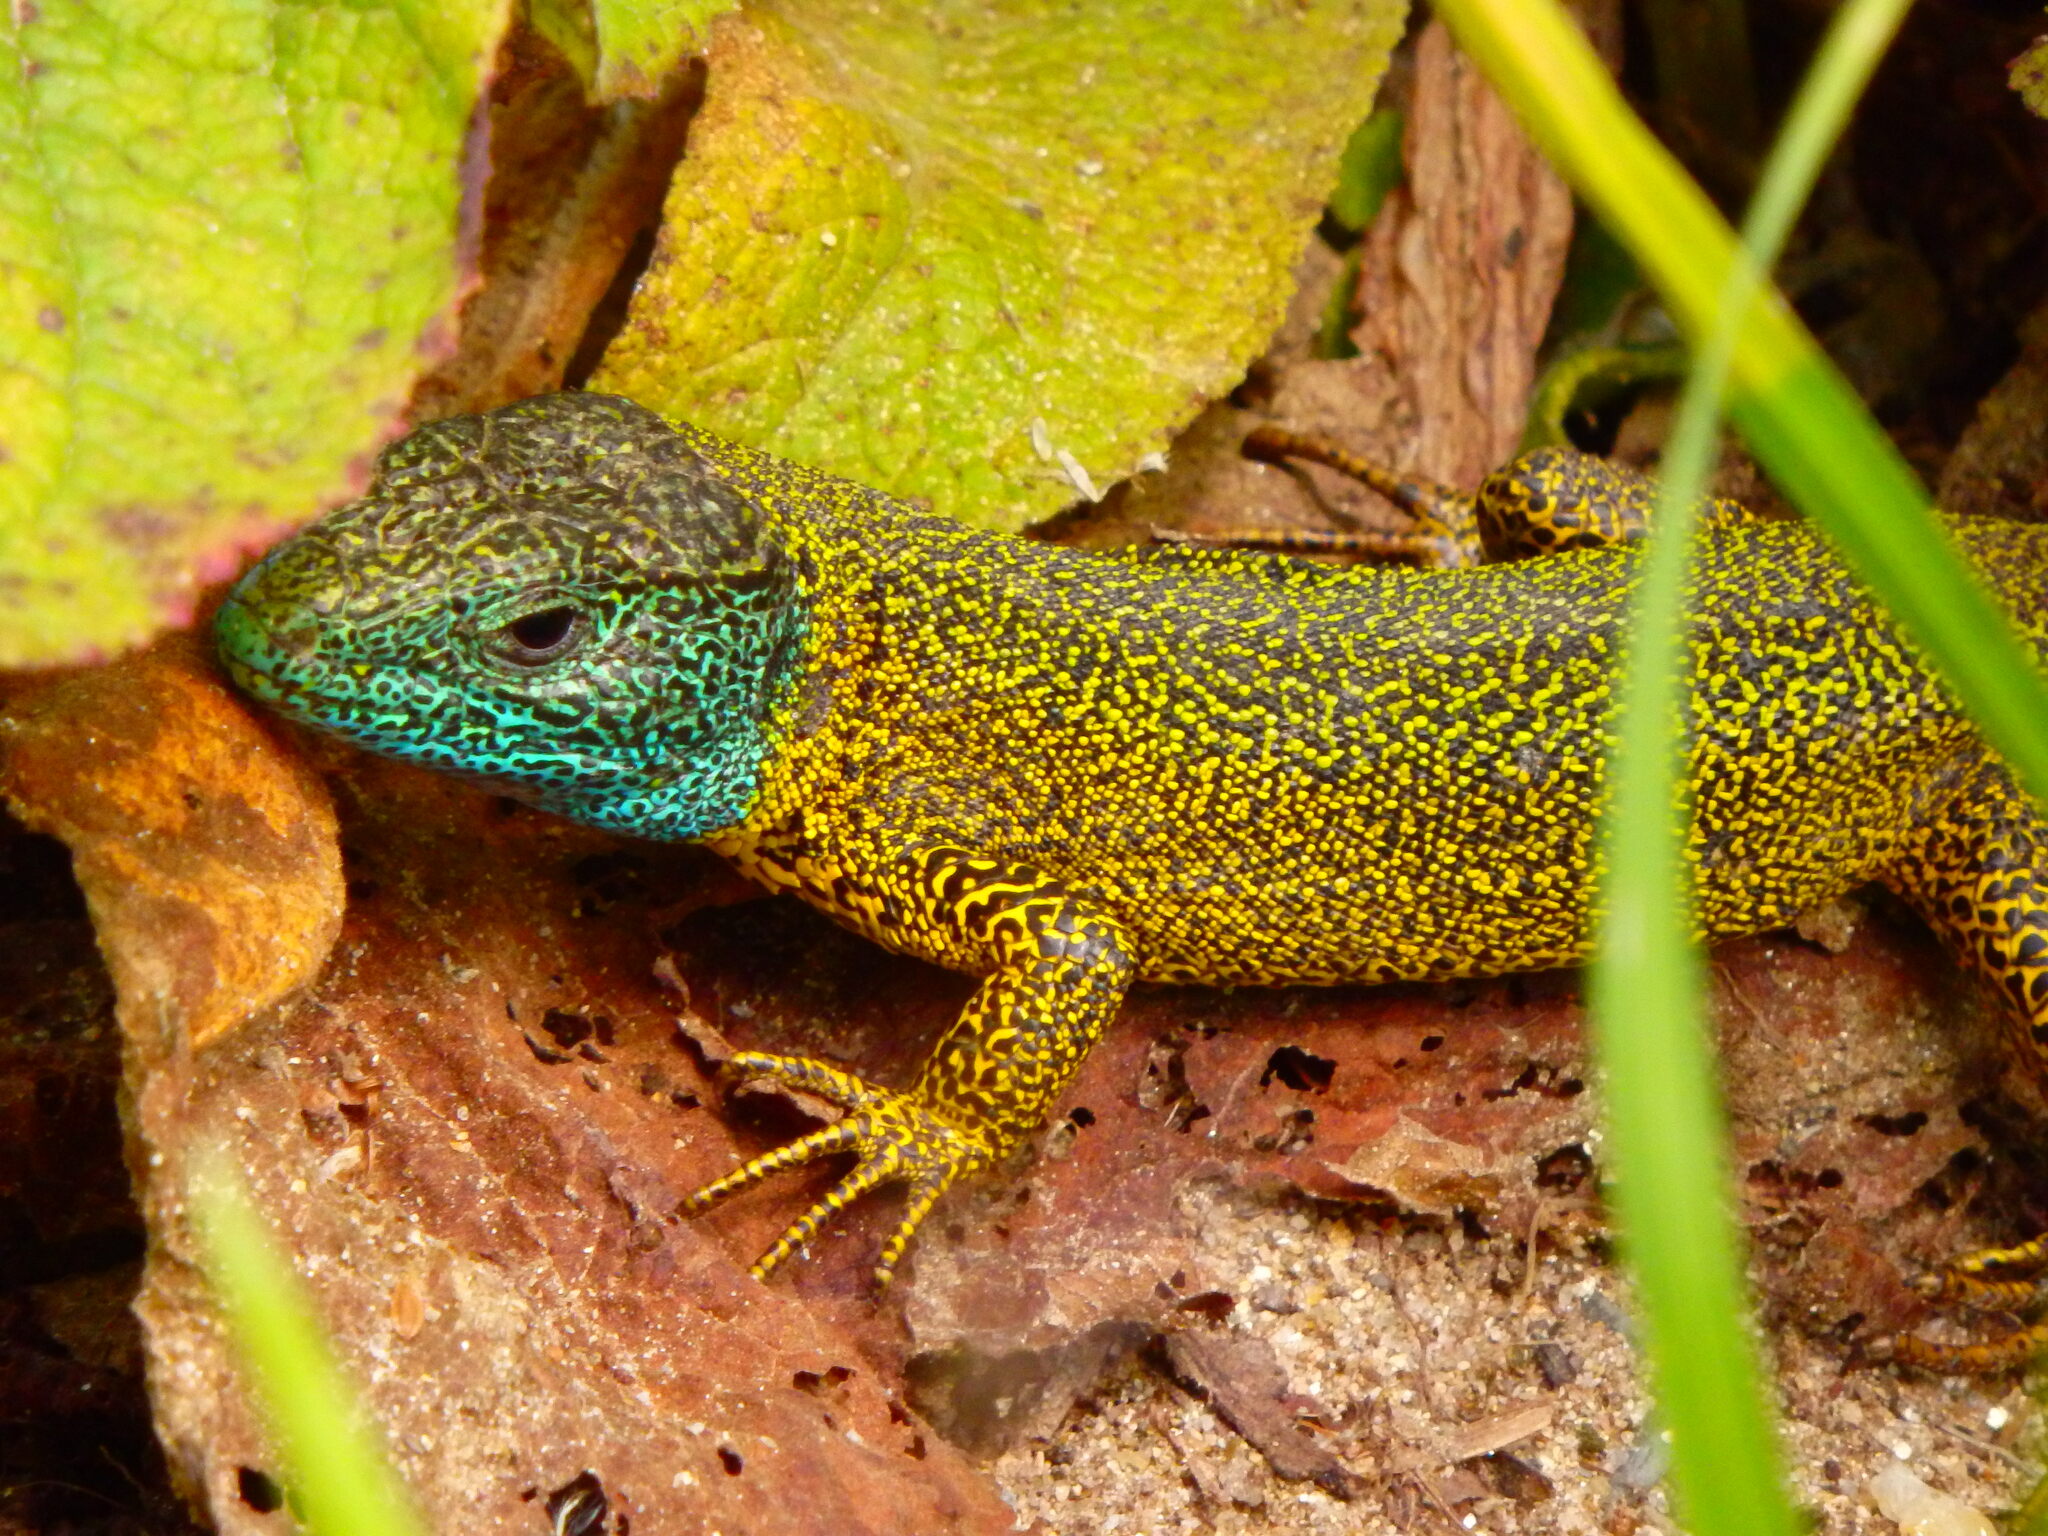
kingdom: Animalia
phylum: Chordata
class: Squamata
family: Lacertidae
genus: Lacerta
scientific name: Lacerta schreiberi
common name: Iberian emerald lizard
